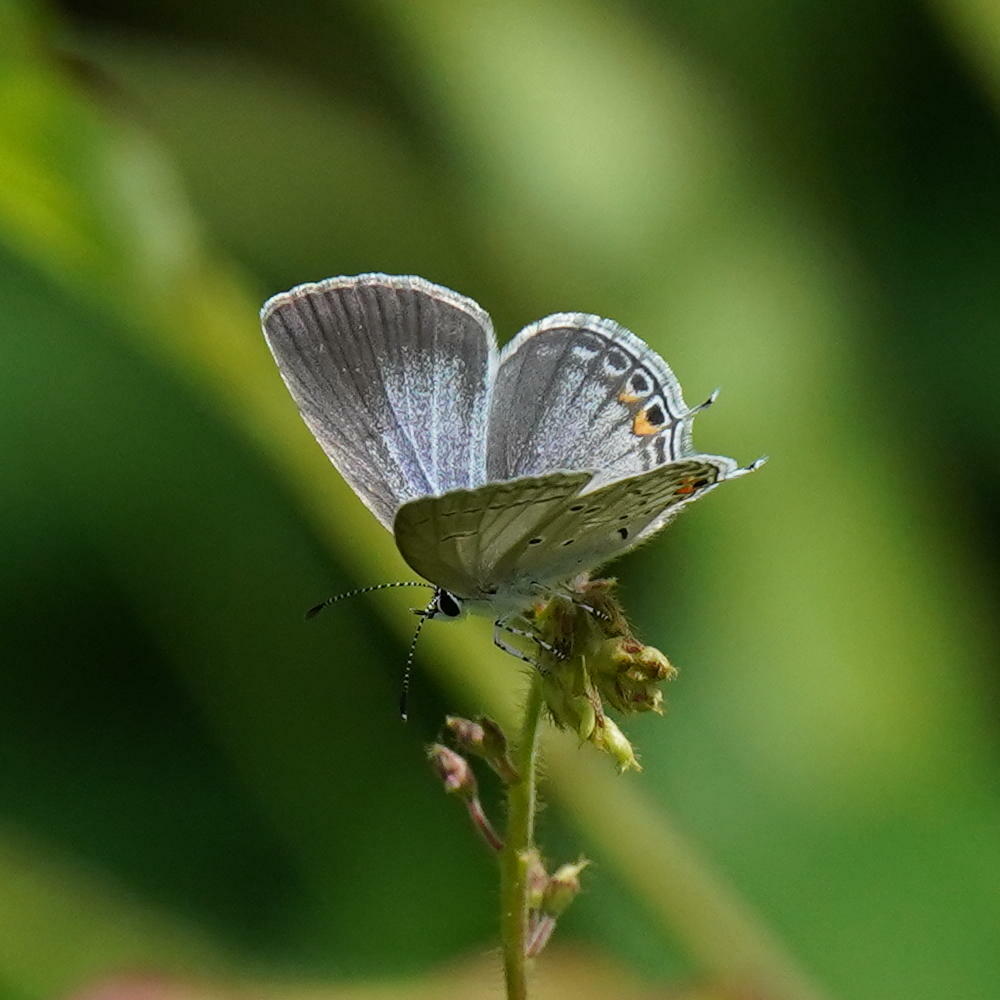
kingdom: Animalia
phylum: Arthropoda
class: Insecta
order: Lepidoptera
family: Lycaenidae
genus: Elkalyce
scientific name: Elkalyce comyntas
